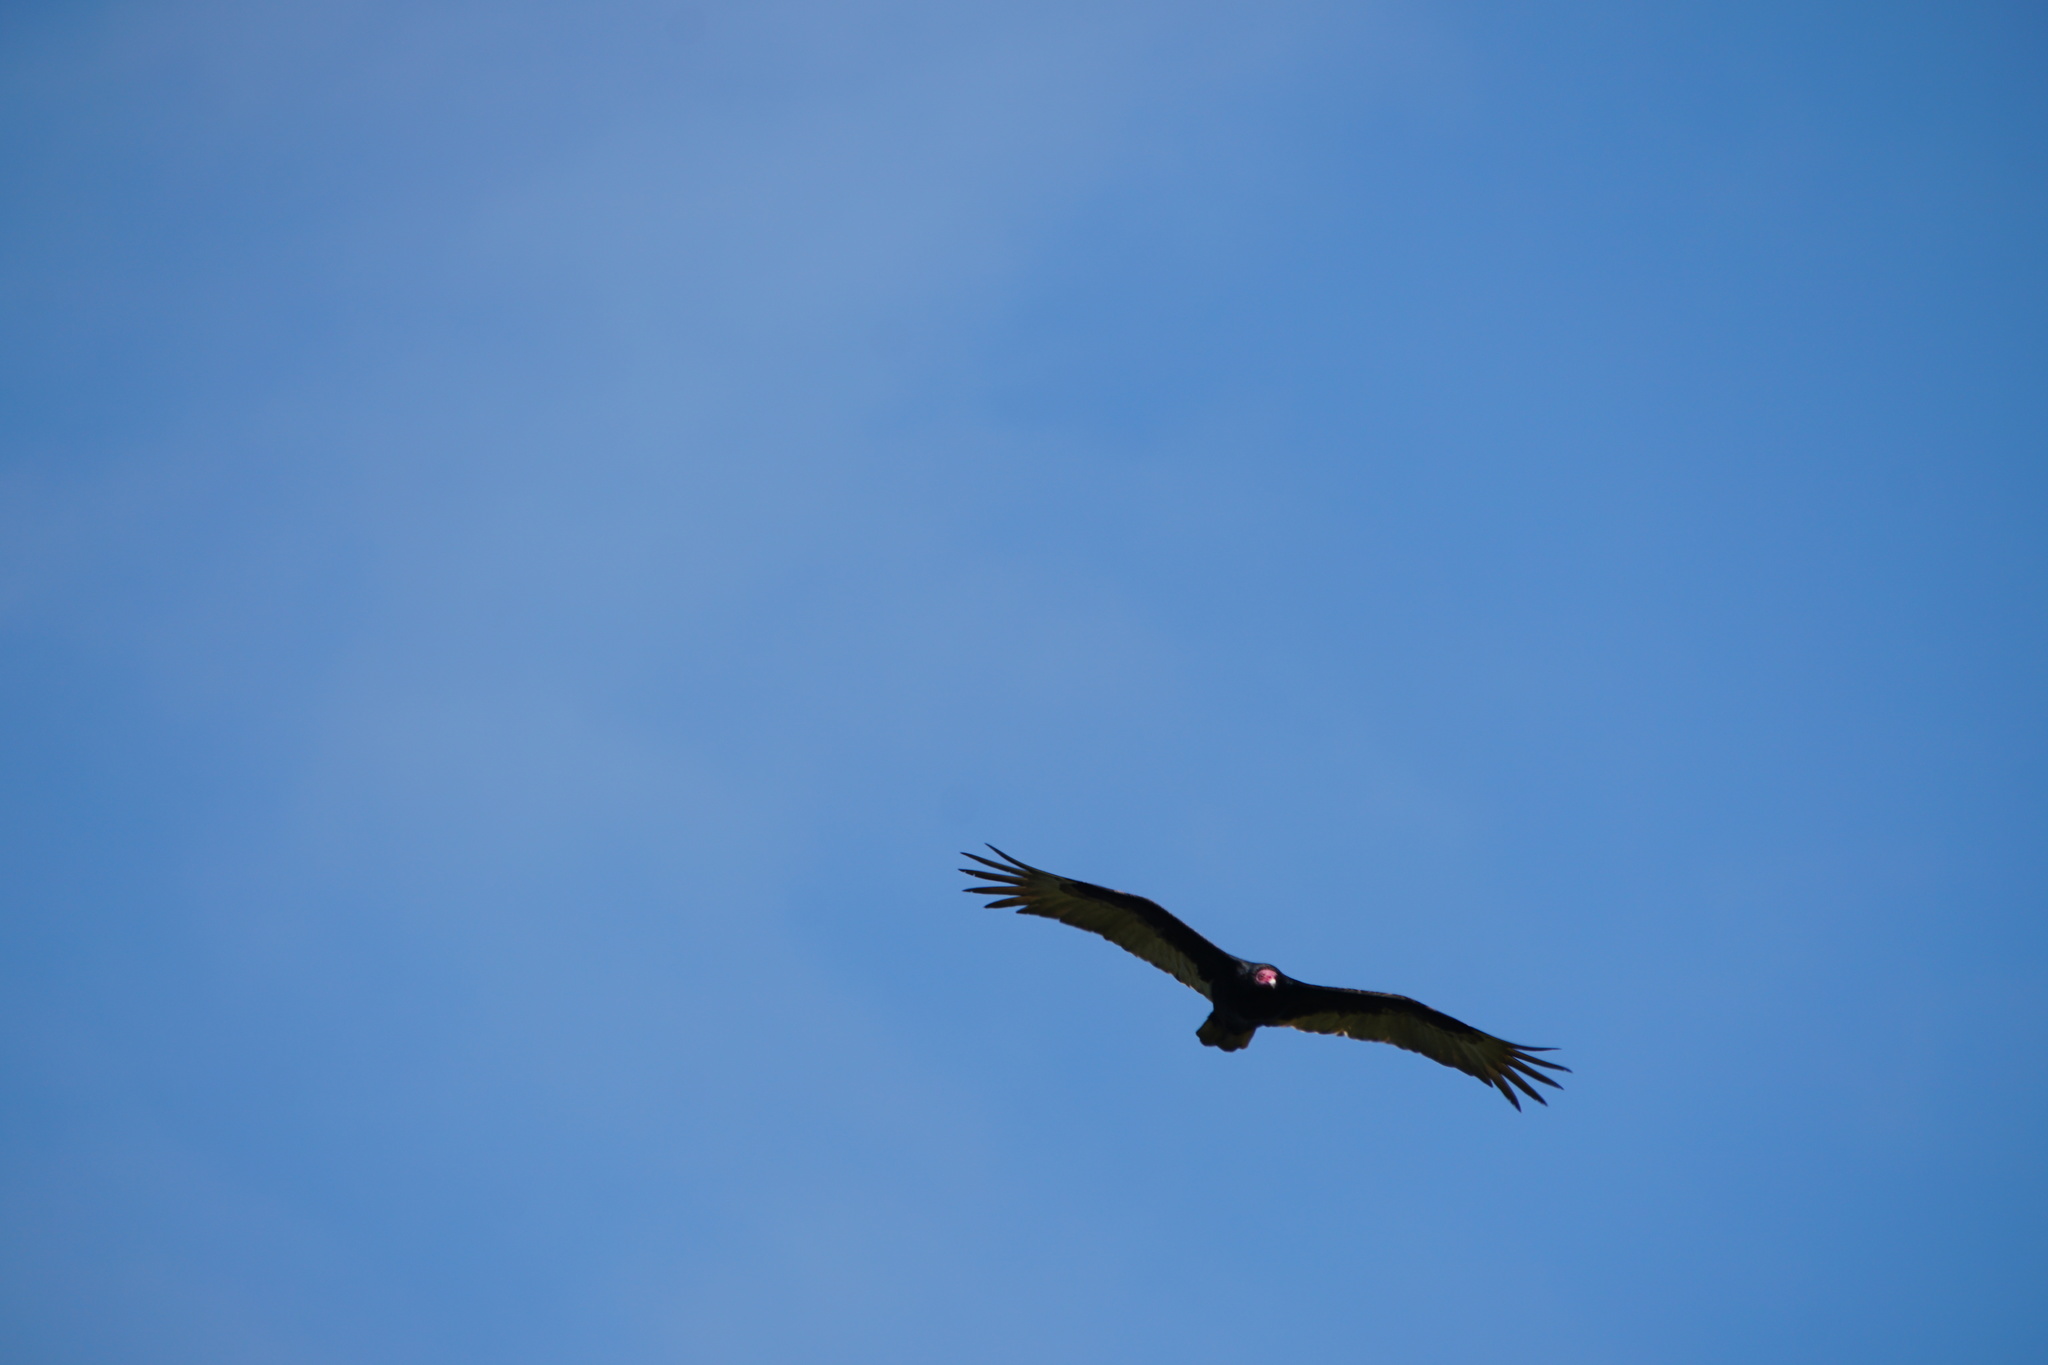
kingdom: Animalia
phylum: Chordata
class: Aves
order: Accipitriformes
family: Cathartidae
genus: Cathartes
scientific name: Cathartes aura
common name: Turkey vulture
